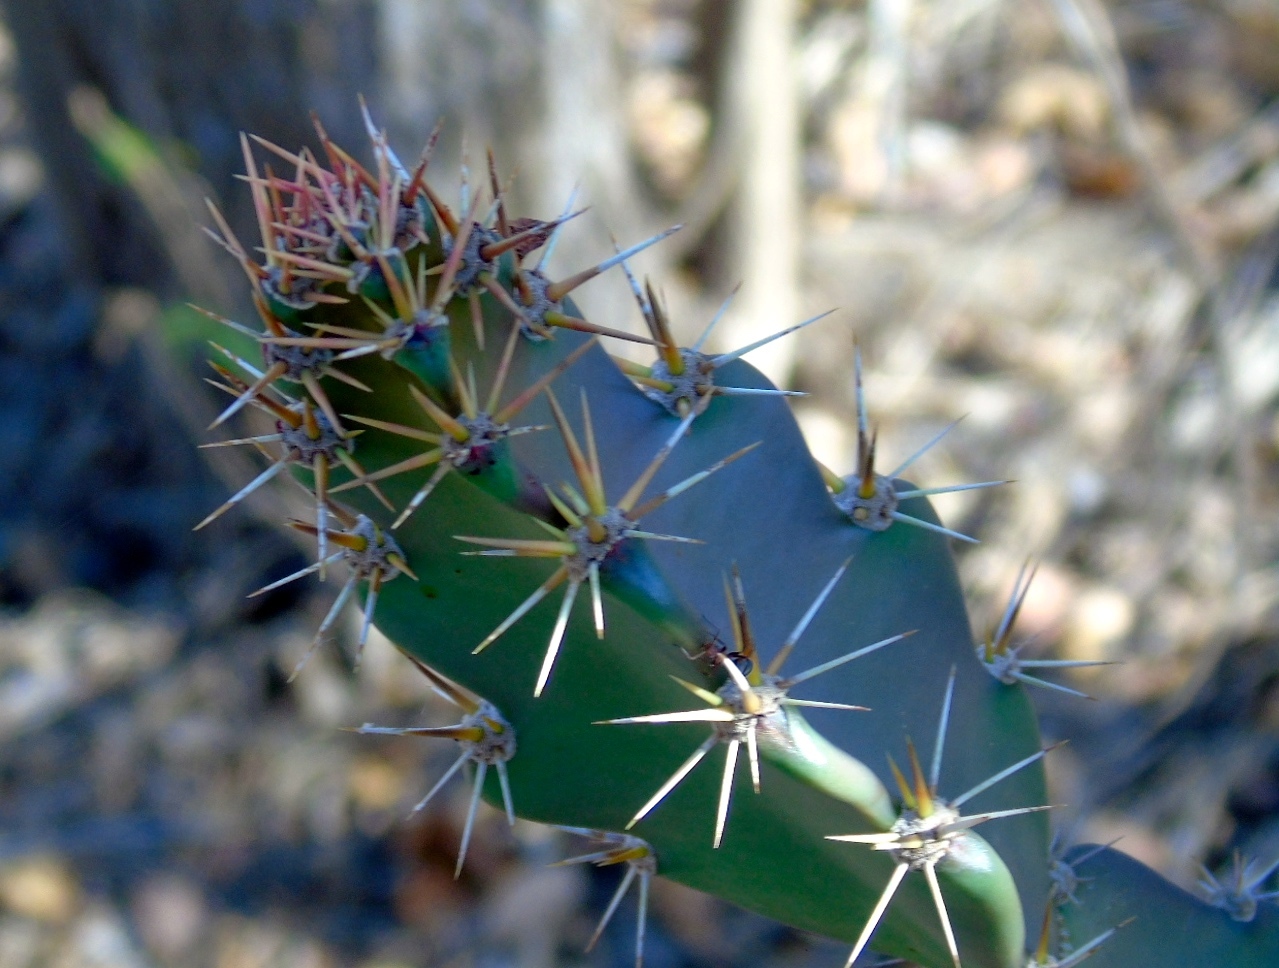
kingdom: Plantae
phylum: Tracheophyta
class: Magnoliopsida
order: Caryophyllales
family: Cactaceae
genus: Acanthocereus
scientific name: Acanthocereus
